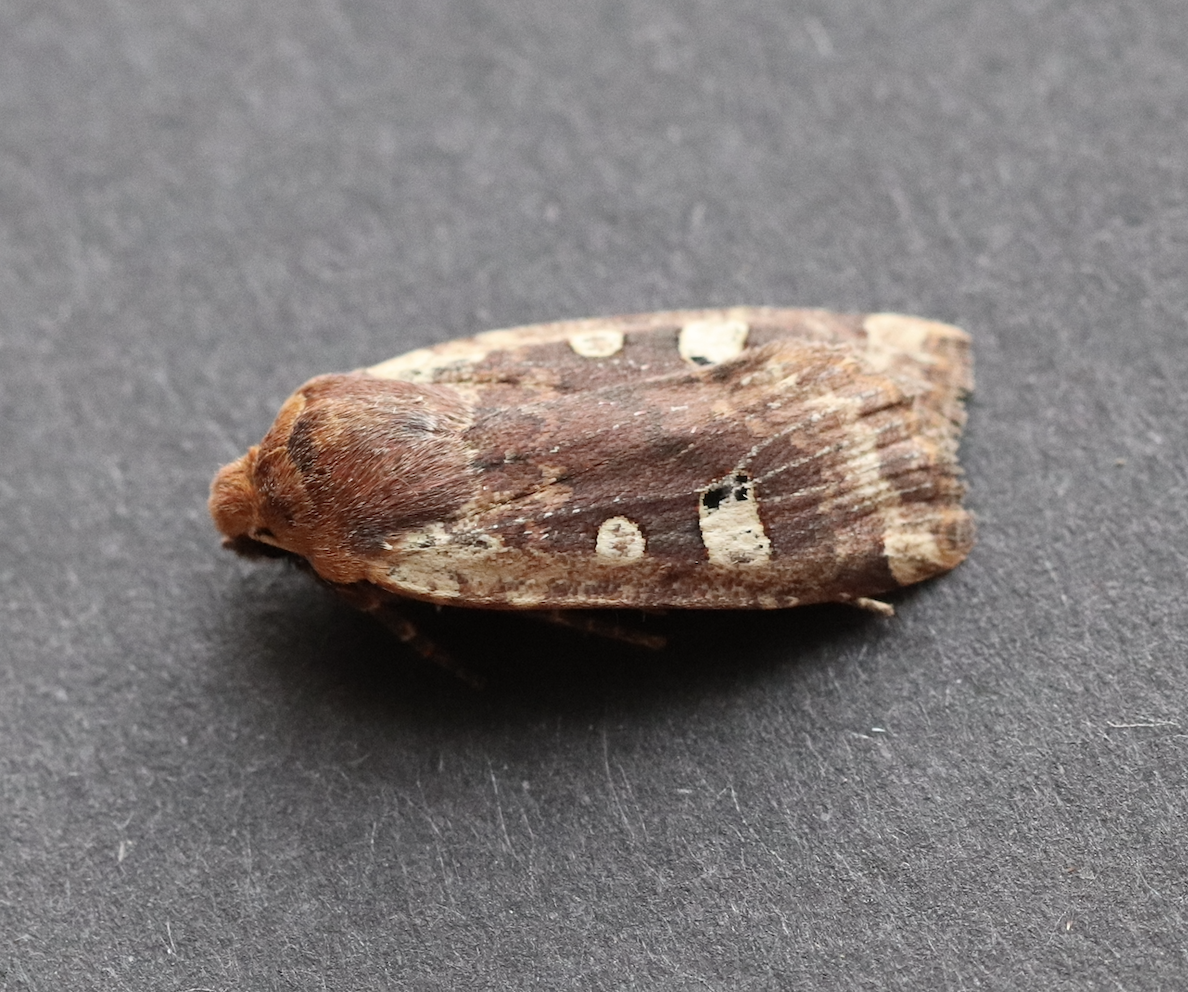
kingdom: Animalia
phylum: Arthropoda
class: Insecta
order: Lepidoptera
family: Noctuidae
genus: Conistra
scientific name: Conistra erythrocephala
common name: Red-headed chestnut
